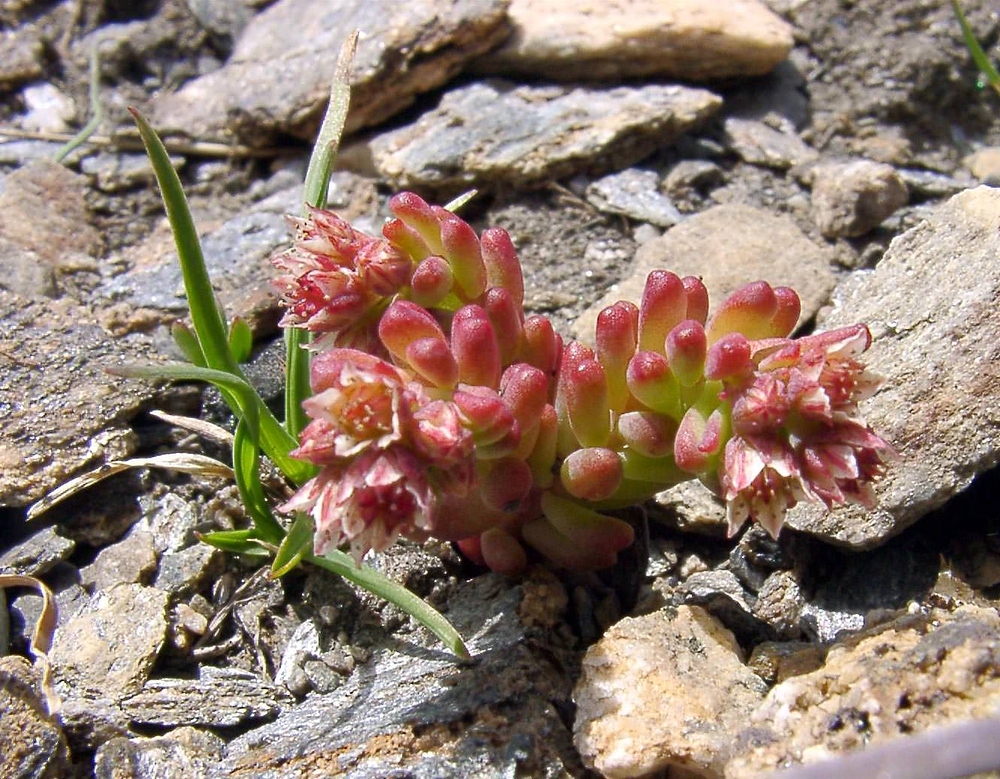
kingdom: Plantae
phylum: Tracheophyta
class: Magnoliopsida
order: Saxifragales
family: Crassulaceae
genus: Sedum
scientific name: Sedum atratum
